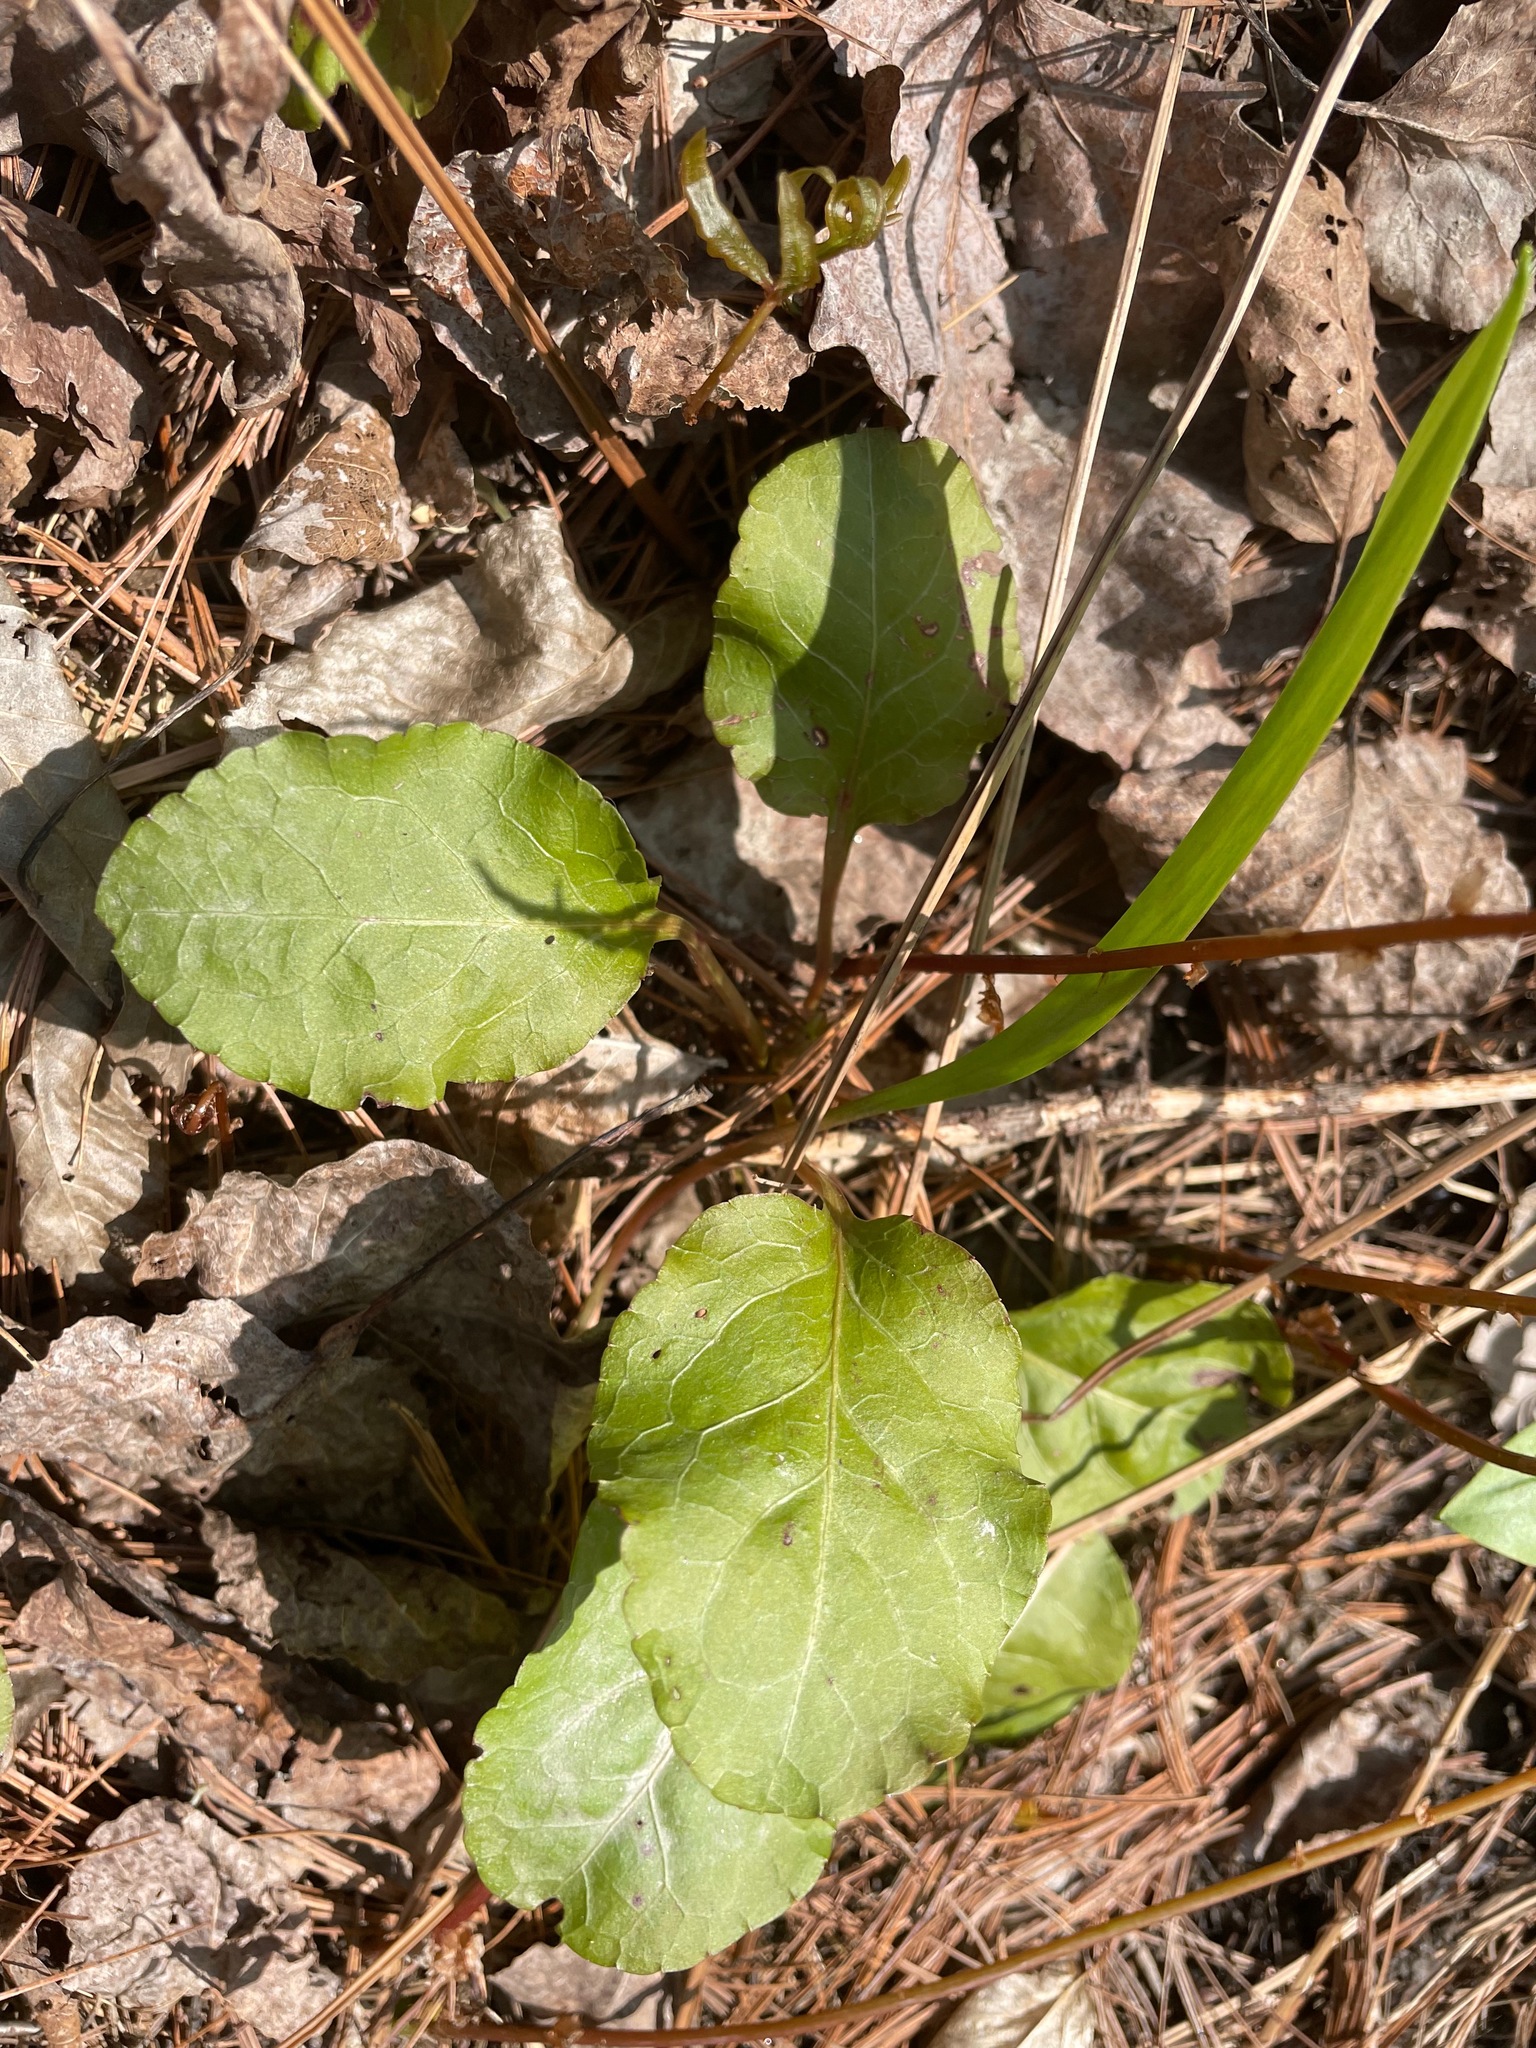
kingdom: Plantae
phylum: Tracheophyta
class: Magnoliopsida
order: Ericales
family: Ericaceae
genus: Pyrola
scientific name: Pyrola elliptica
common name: Shinleaf
